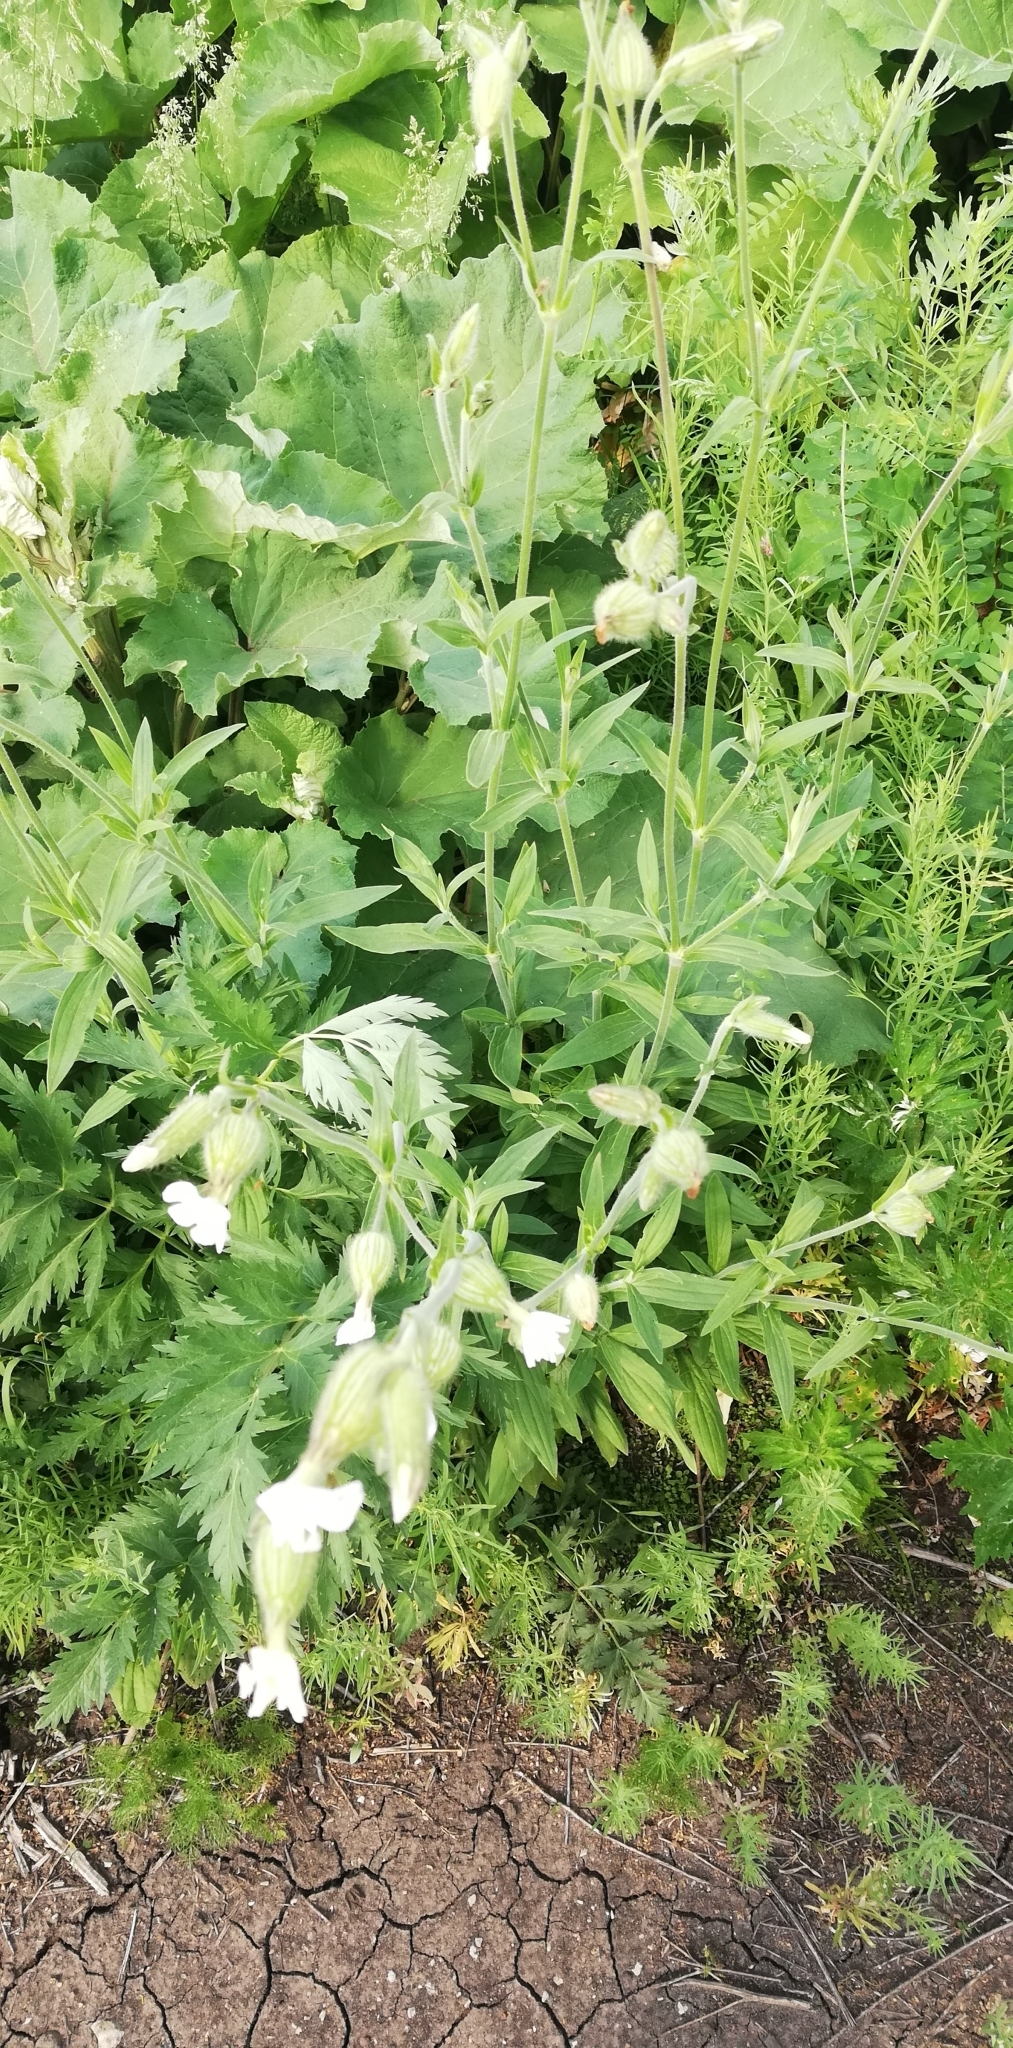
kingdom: Plantae
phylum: Tracheophyta
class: Magnoliopsida
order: Caryophyllales
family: Caryophyllaceae
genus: Silene
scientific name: Silene latifolia
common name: White campion
